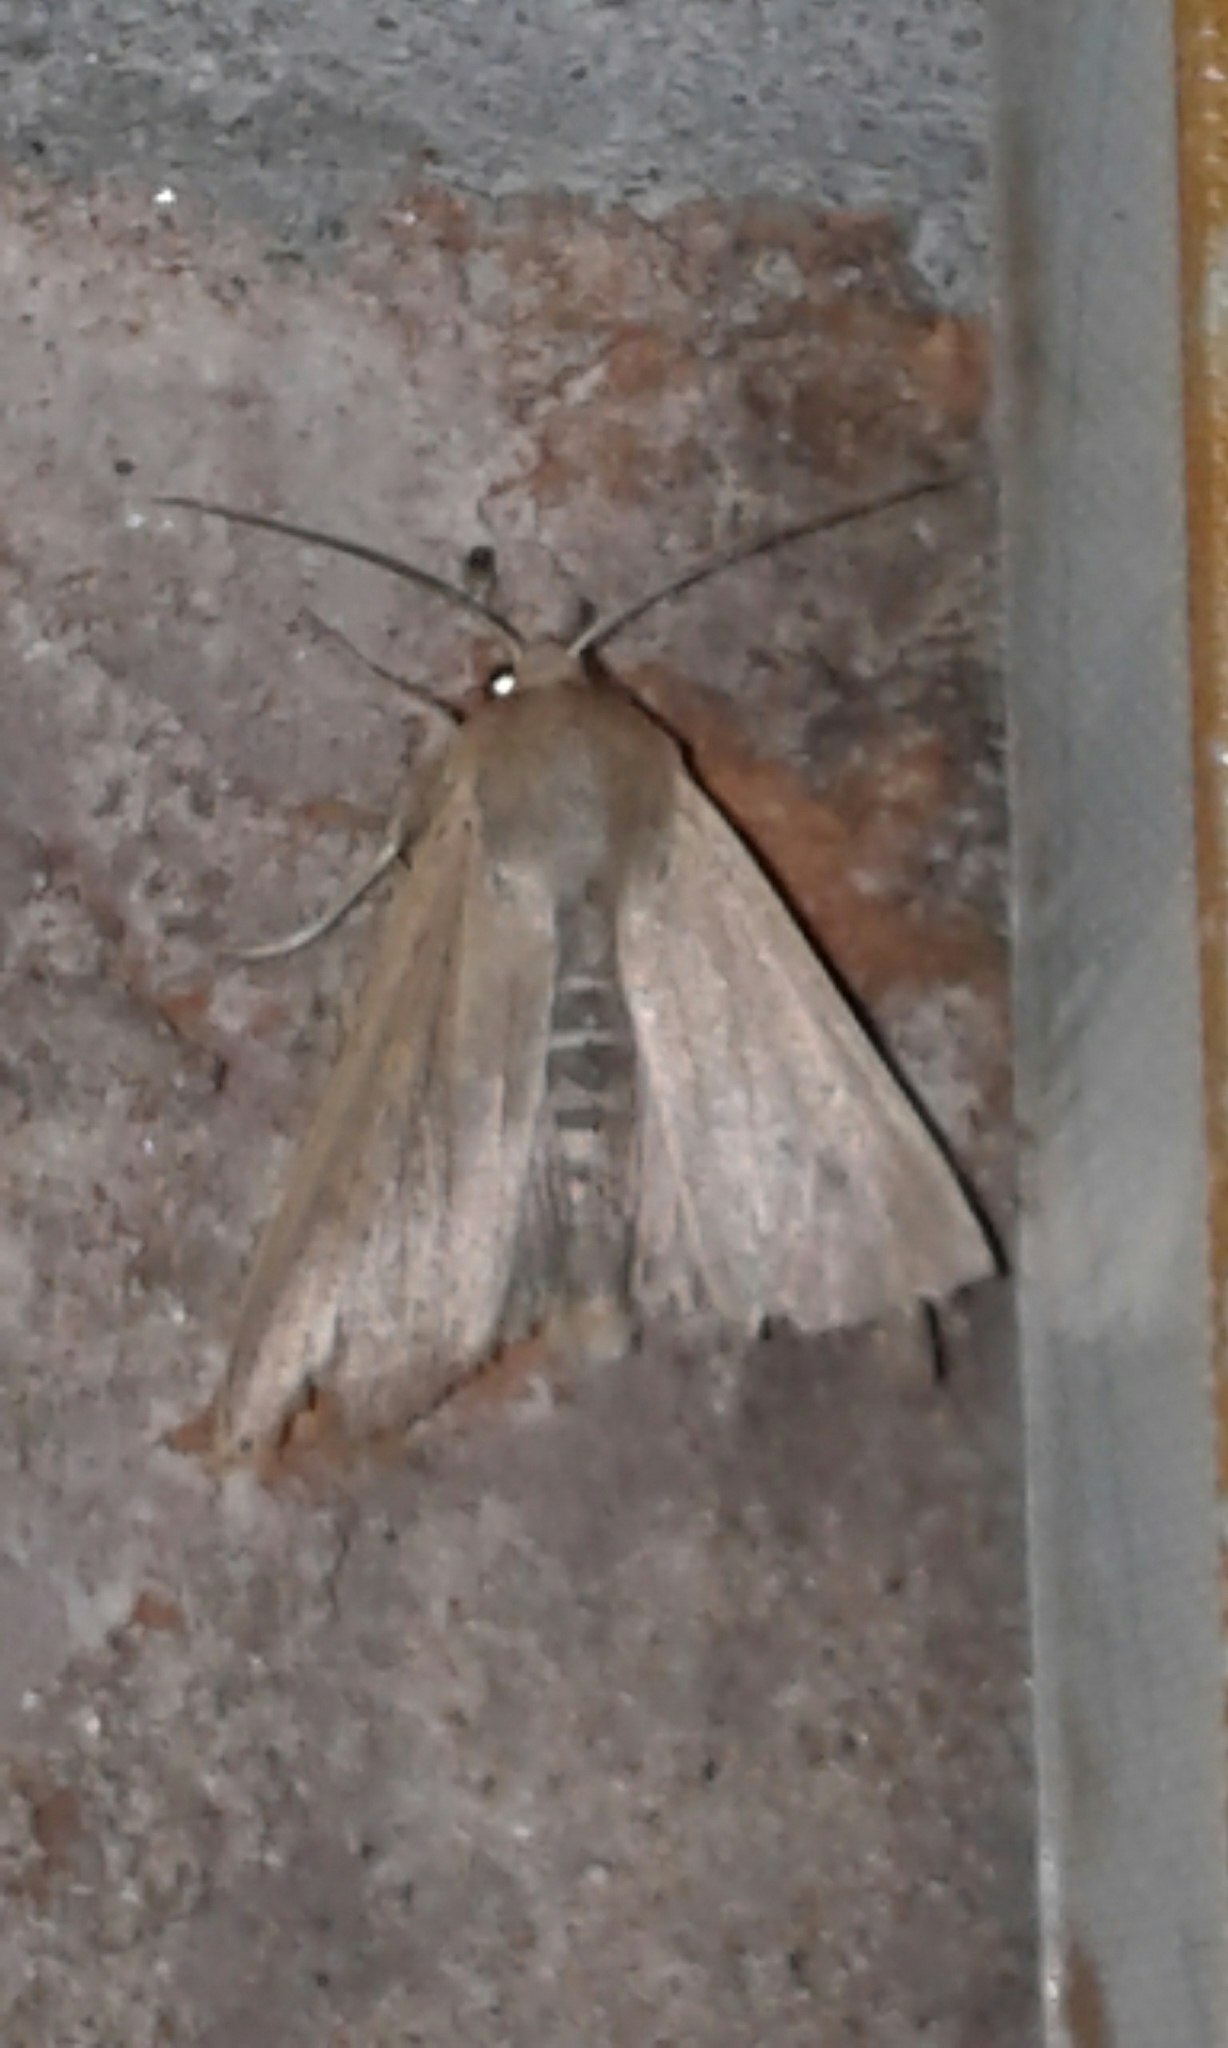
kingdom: Animalia
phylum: Arthropoda
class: Insecta
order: Lepidoptera
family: Noctuidae
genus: Mythimna
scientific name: Mythimna unipuncta
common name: White-speck
